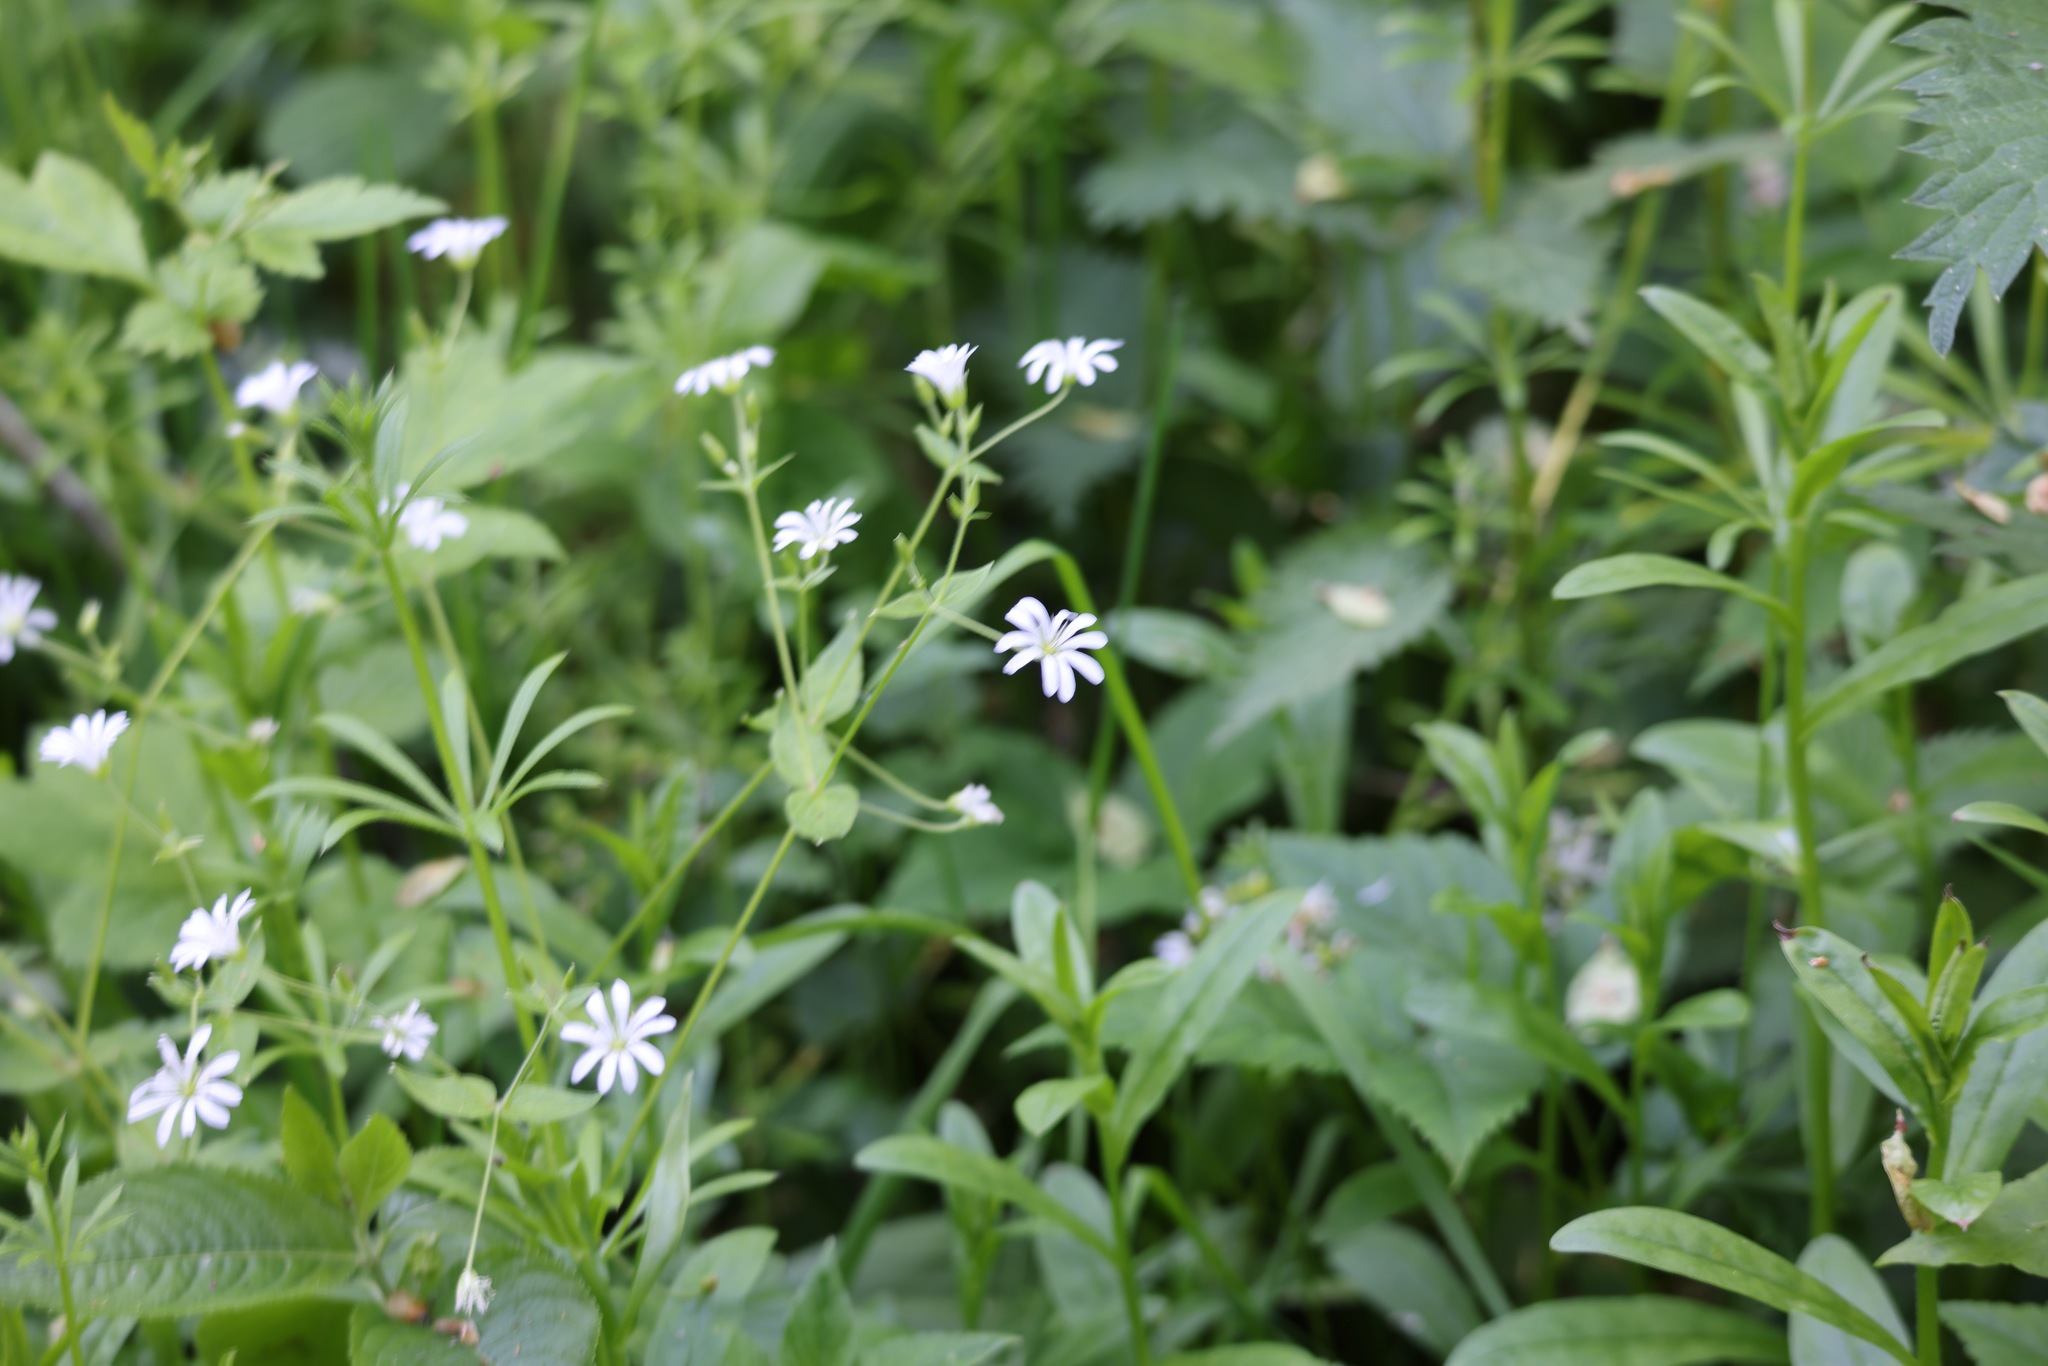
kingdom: Plantae
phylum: Tracheophyta
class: Magnoliopsida
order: Caryophyllales
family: Caryophyllaceae
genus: Stellaria
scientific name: Stellaria nemorum
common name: Wood stitchwort
